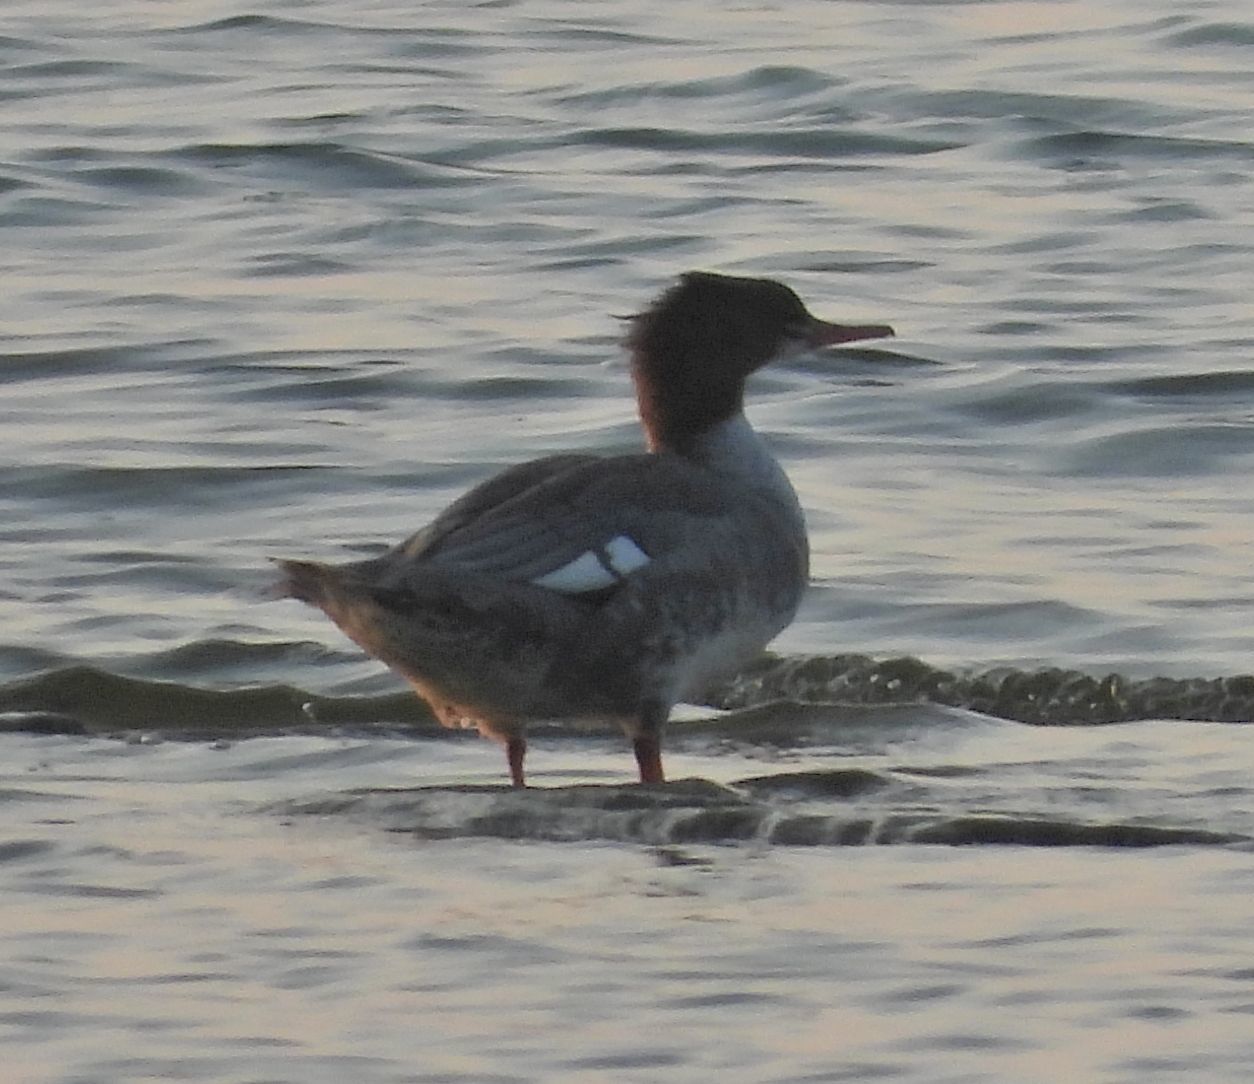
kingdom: Animalia
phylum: Chordata
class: Aves
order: Anseriformes
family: Anatidae
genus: Mergus
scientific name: Mergus merganser
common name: Common merganser
